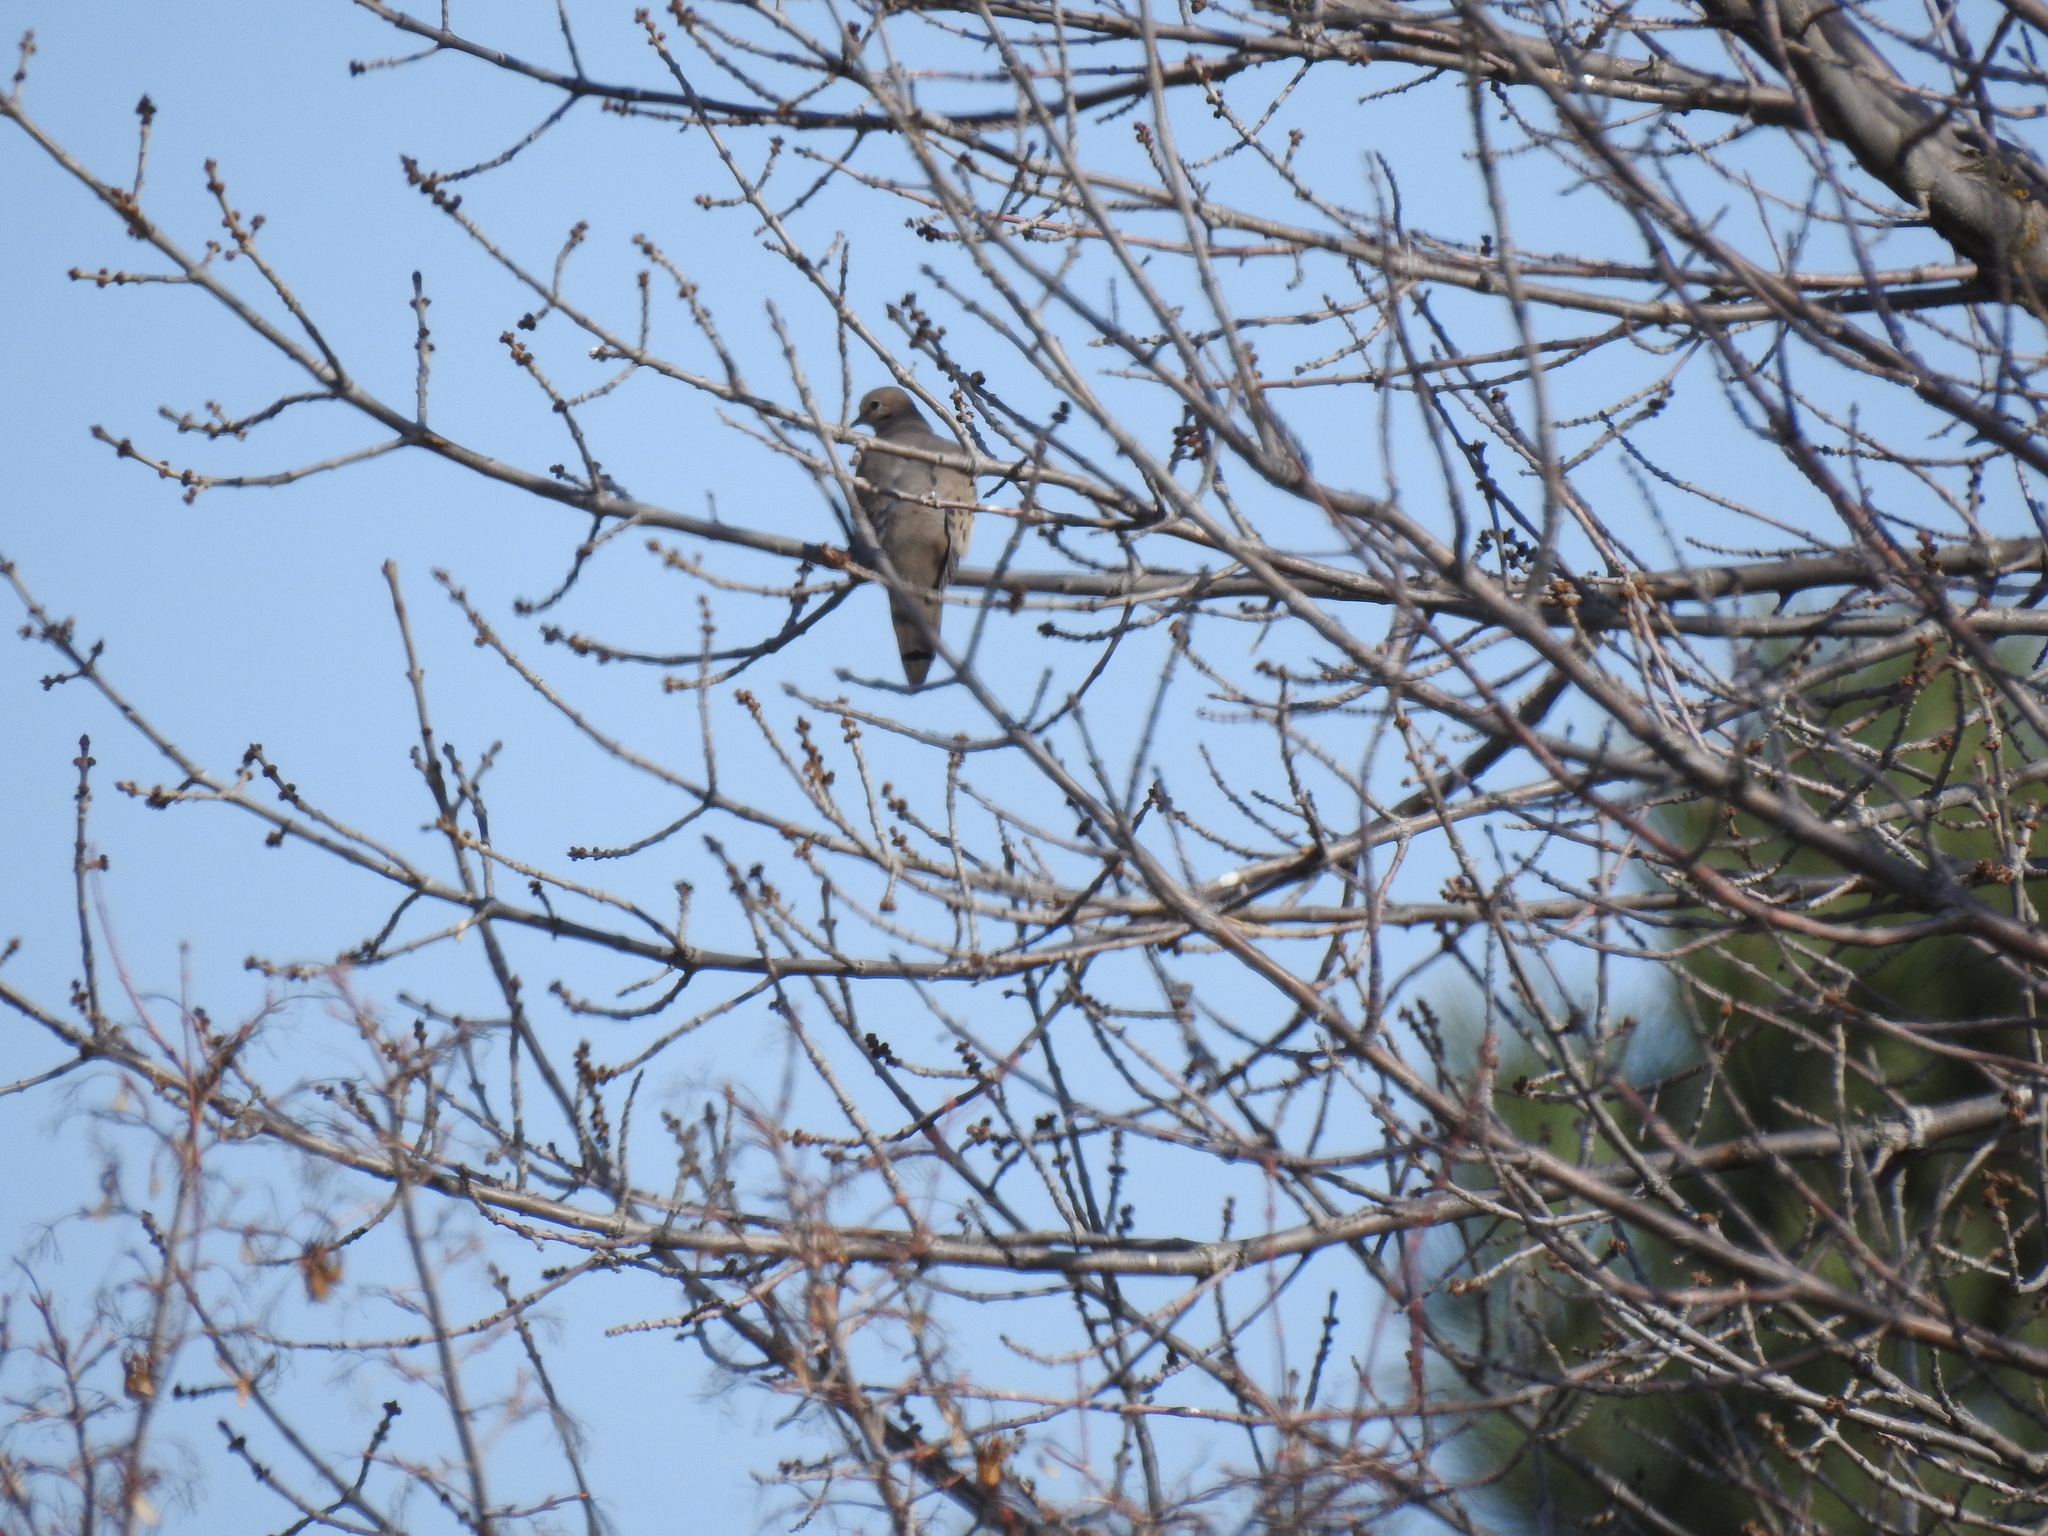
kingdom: Animalia
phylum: Chordata
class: Aves
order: Columbiformes
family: Columbidae
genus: Zenaida
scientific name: Zenaida macroura
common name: Mourning dove
